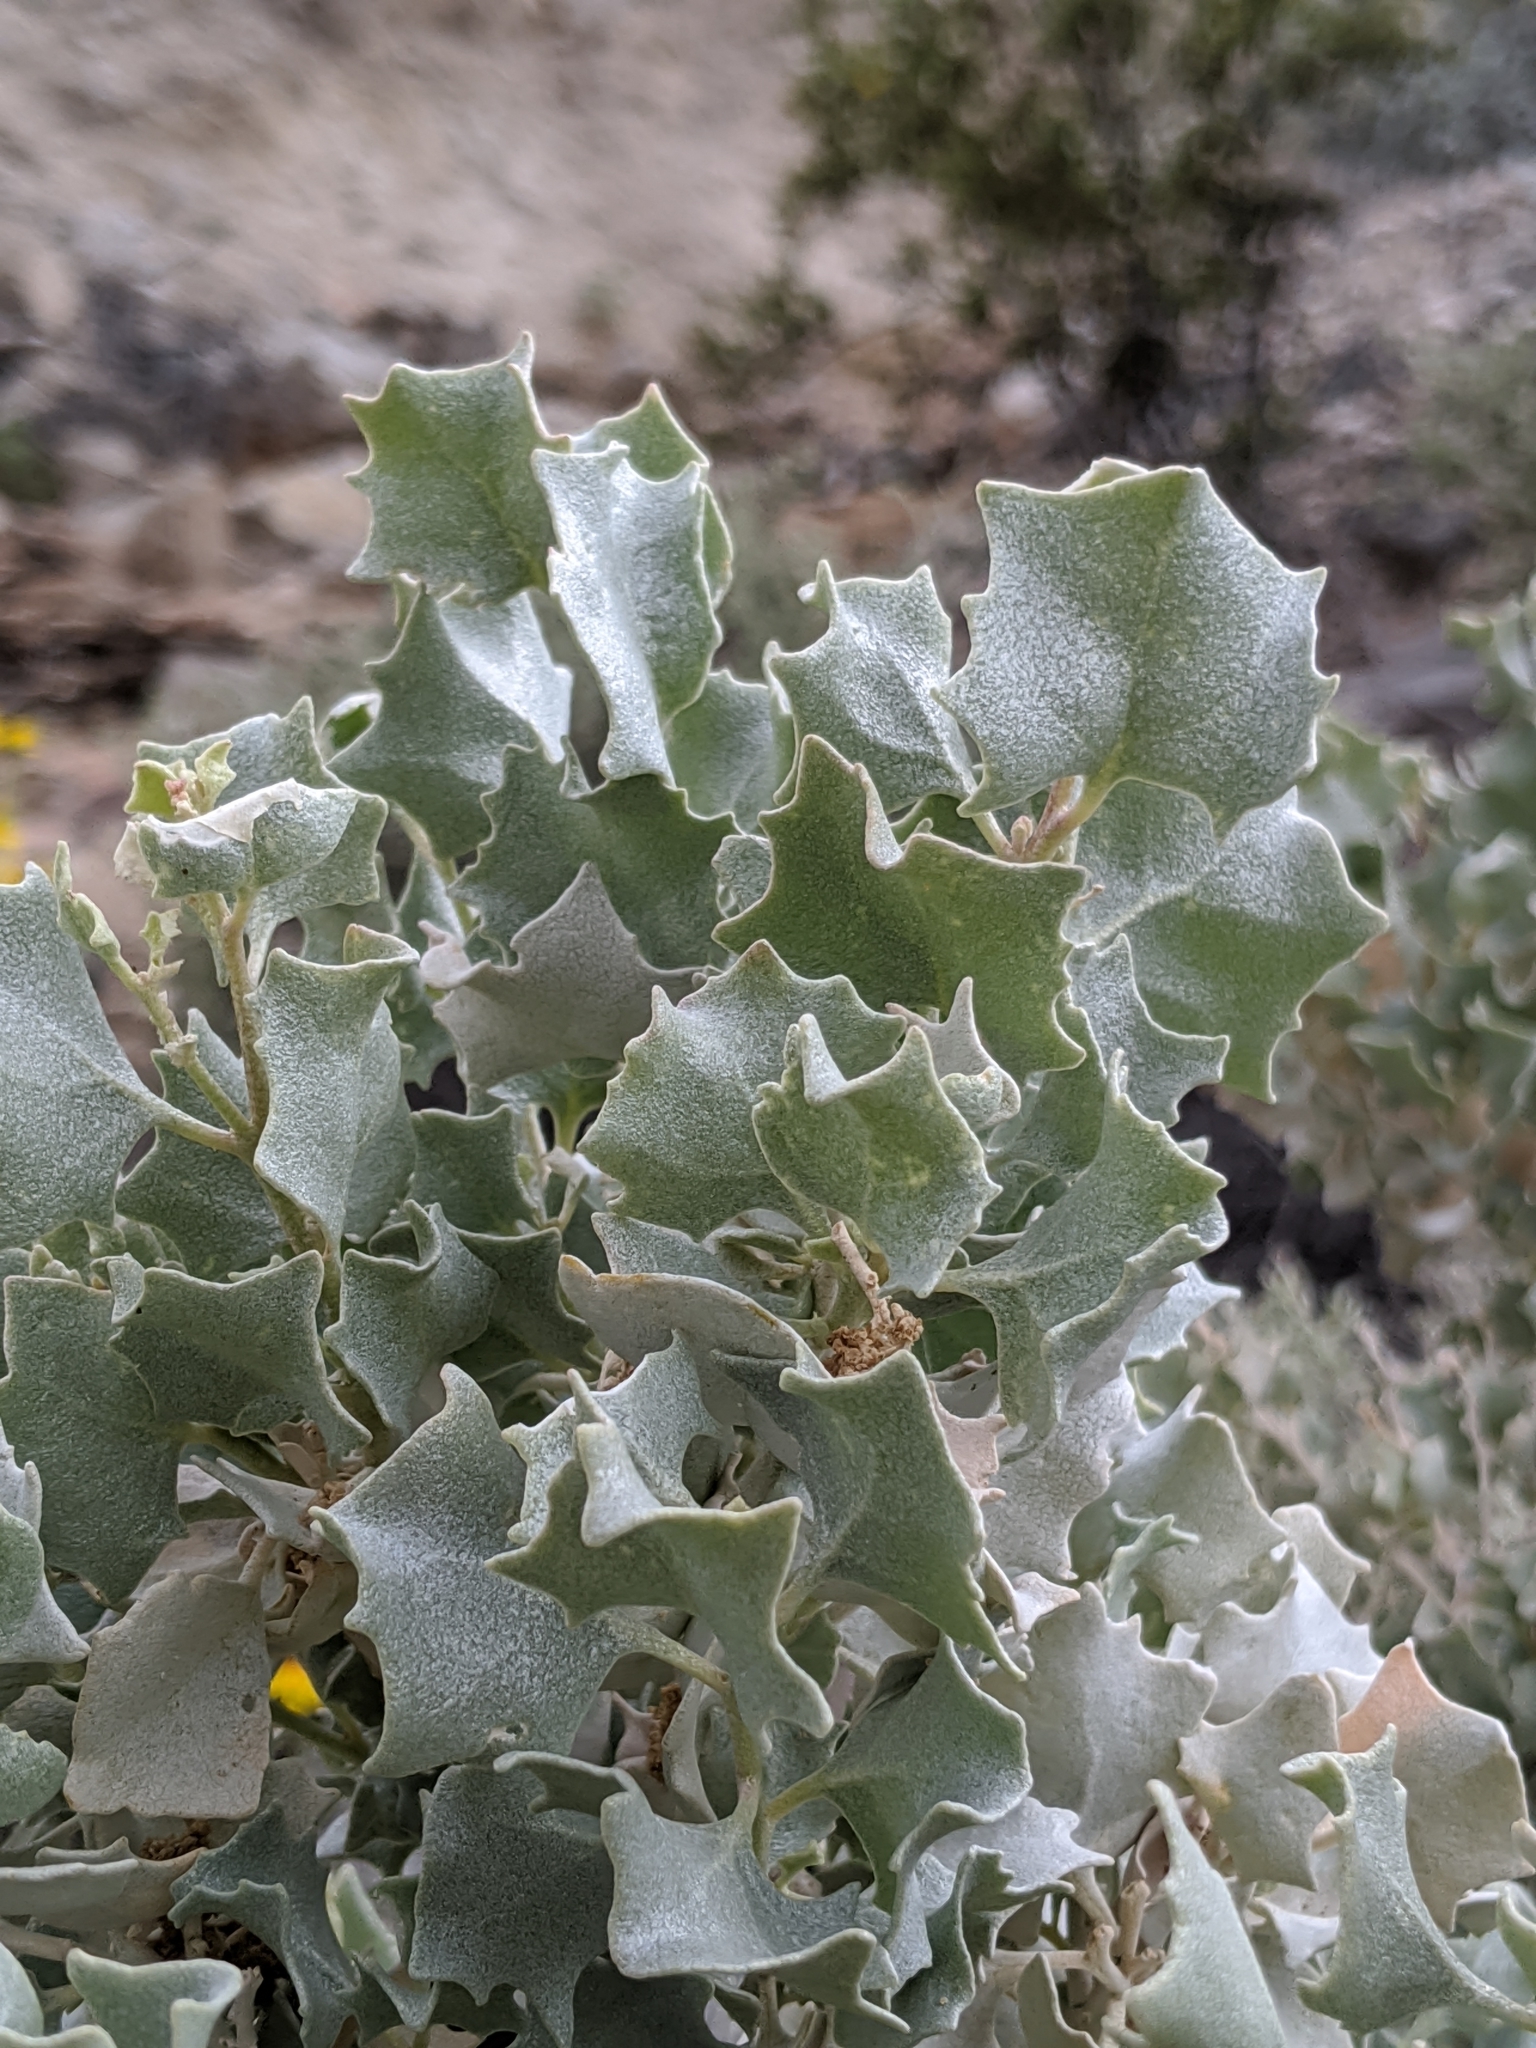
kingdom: Plantae
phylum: Tracheophyta
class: Magnoliopsida
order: Caryophyllales
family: Amaranthaceae
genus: Atriplex
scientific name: Atriplex hymenelytra
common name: Desert-holly
